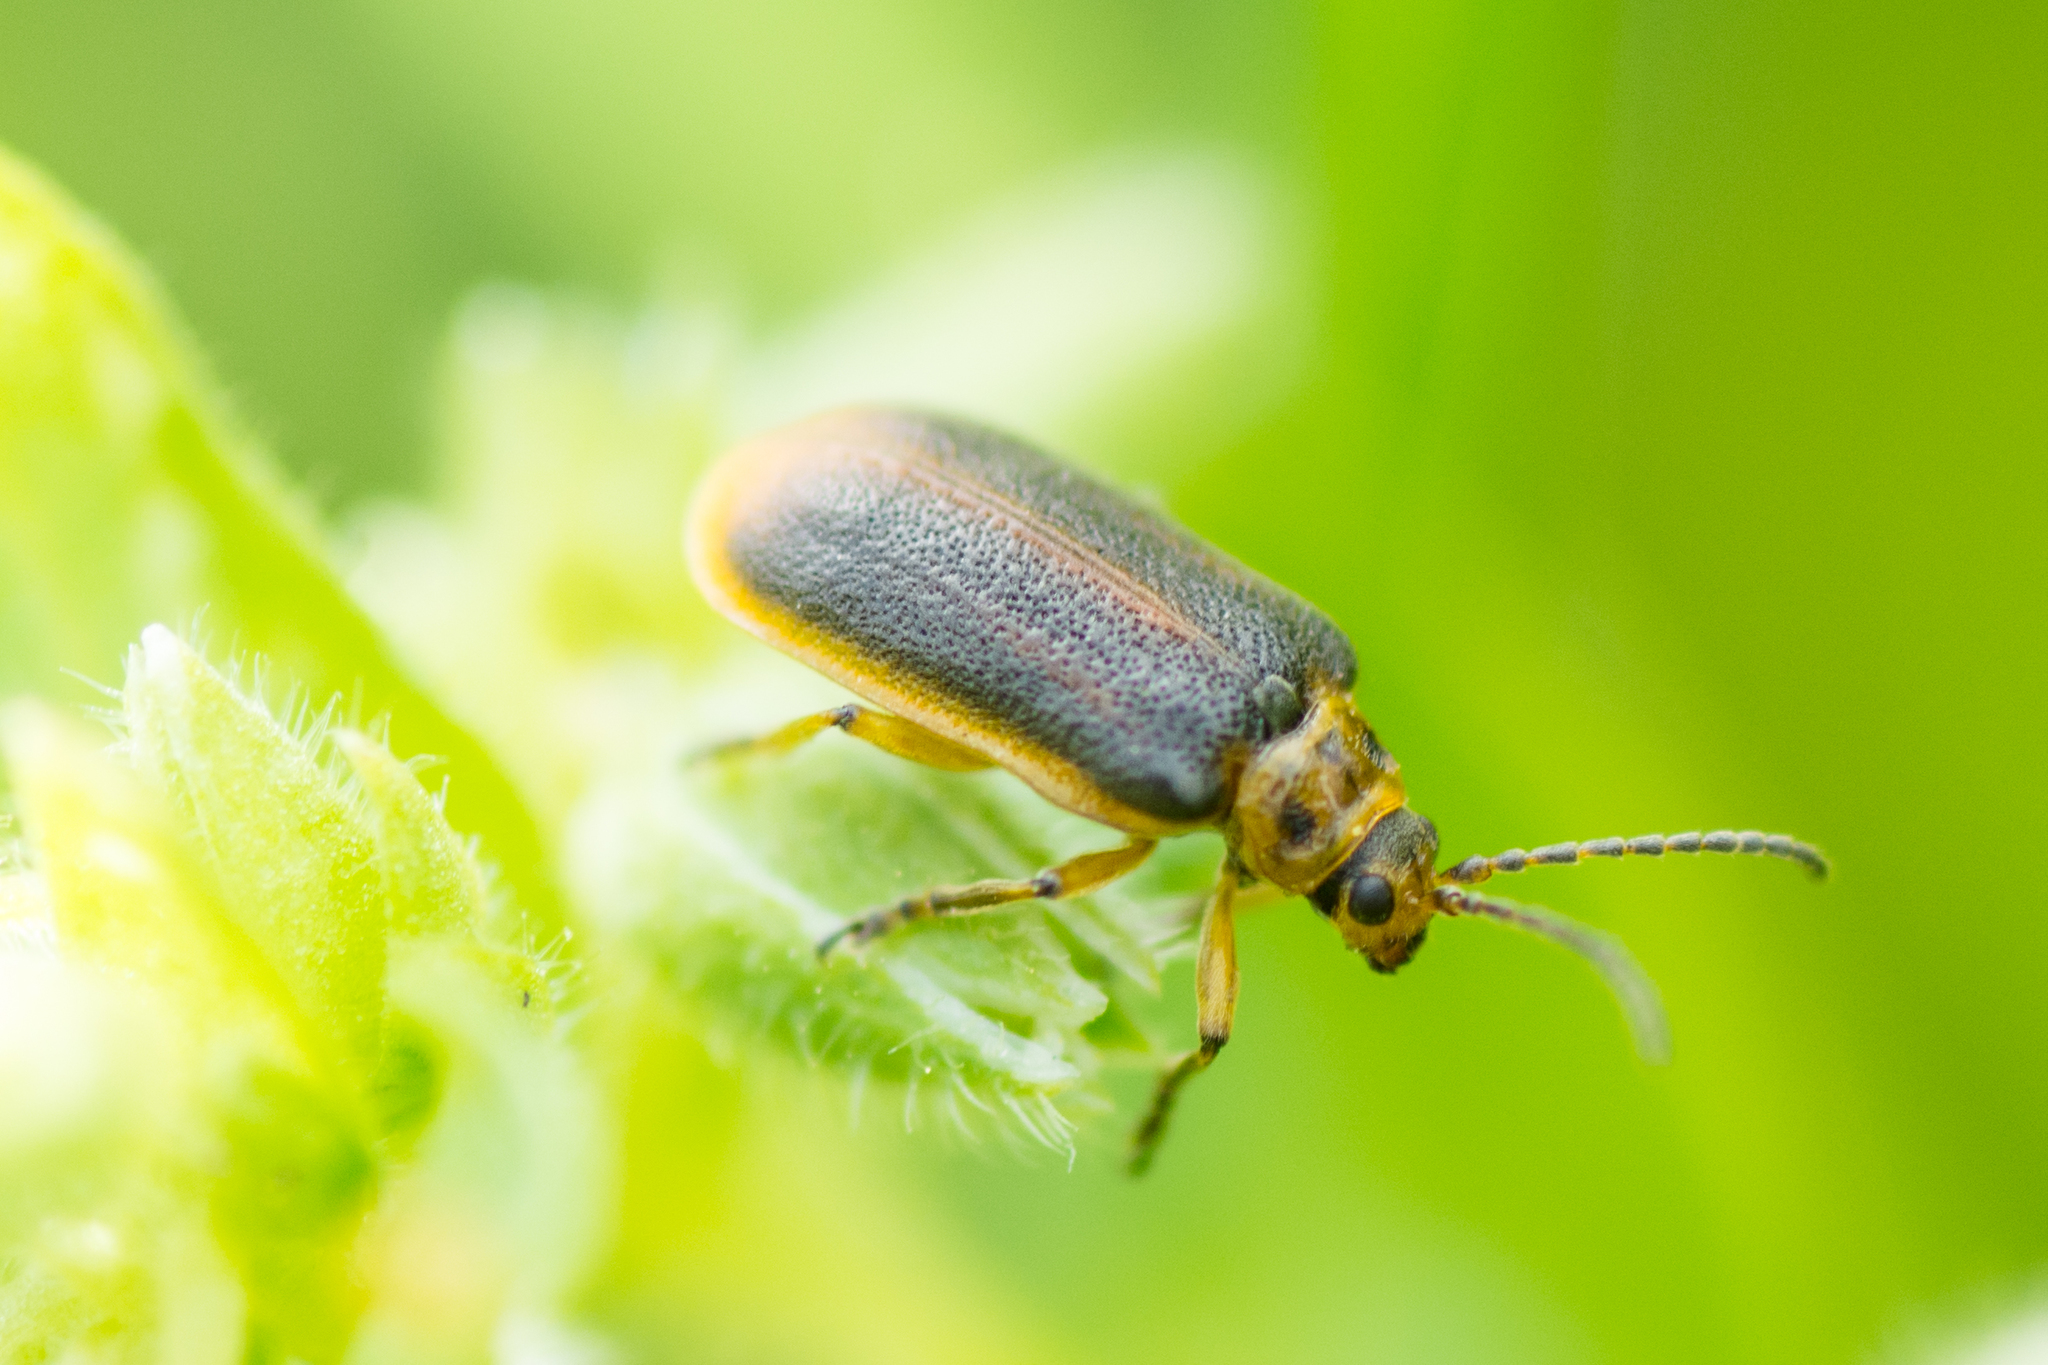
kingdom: Animalia
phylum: Arthropoda
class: Insecta
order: Coleoptera
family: Chrysomelidae
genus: Galerucella
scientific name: Galerucella nymphaeae
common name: Leaf beetle
